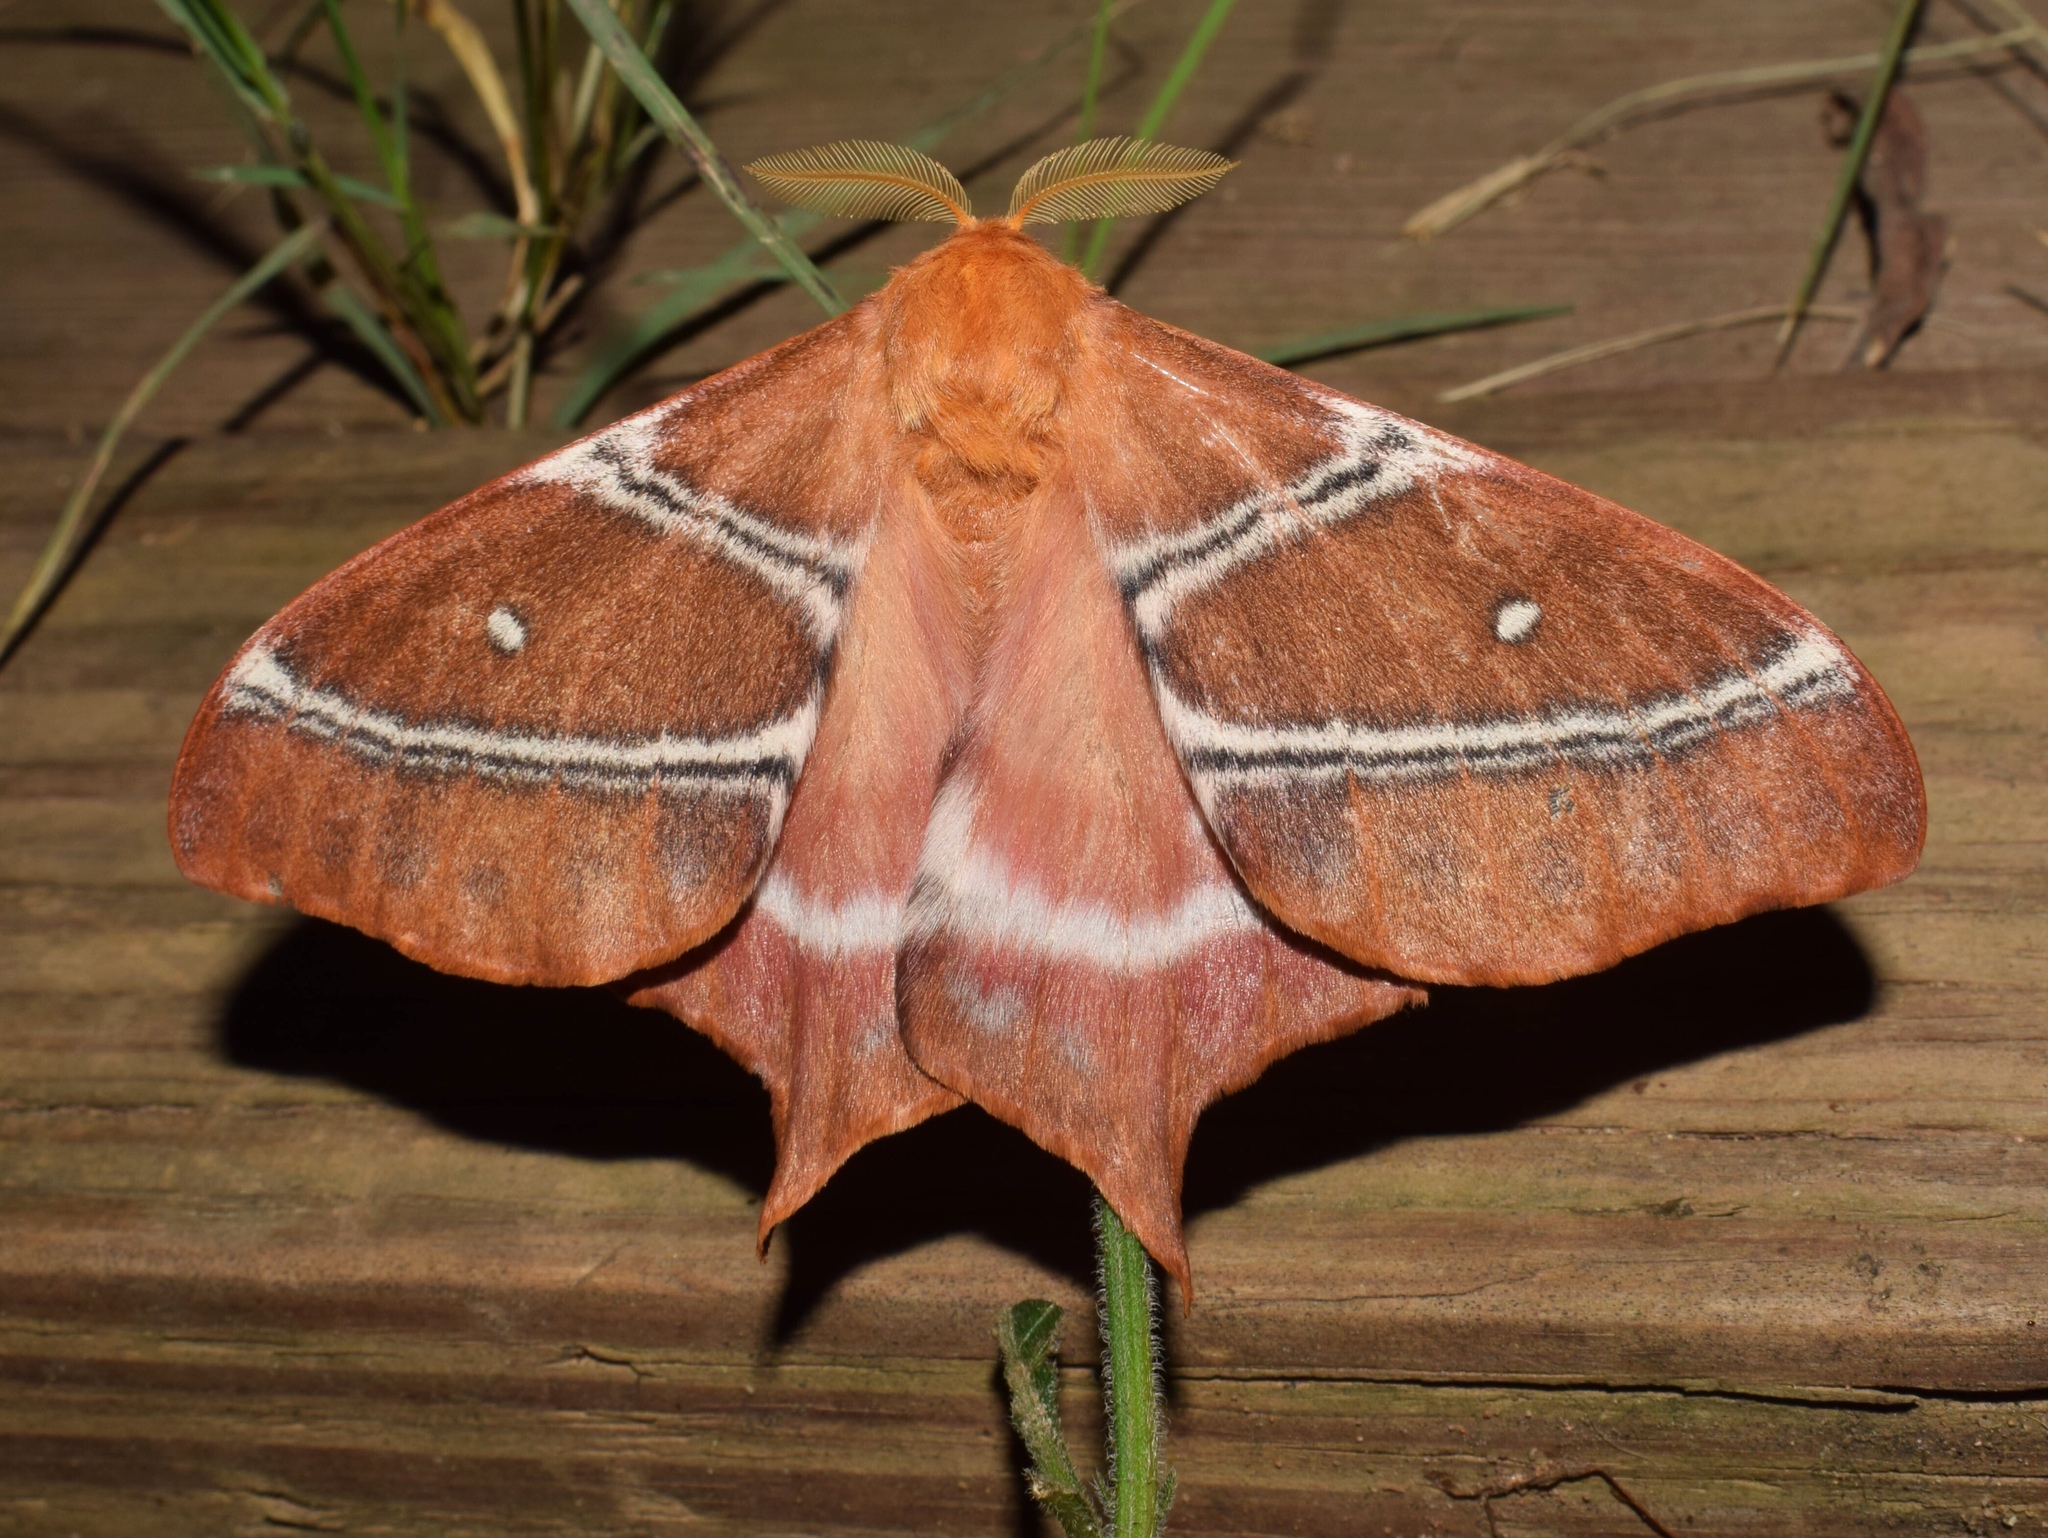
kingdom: Animalia
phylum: Arthropoda
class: Insecta
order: Lepidoptera
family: Saturniidae
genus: Urota
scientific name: Urota sinope
